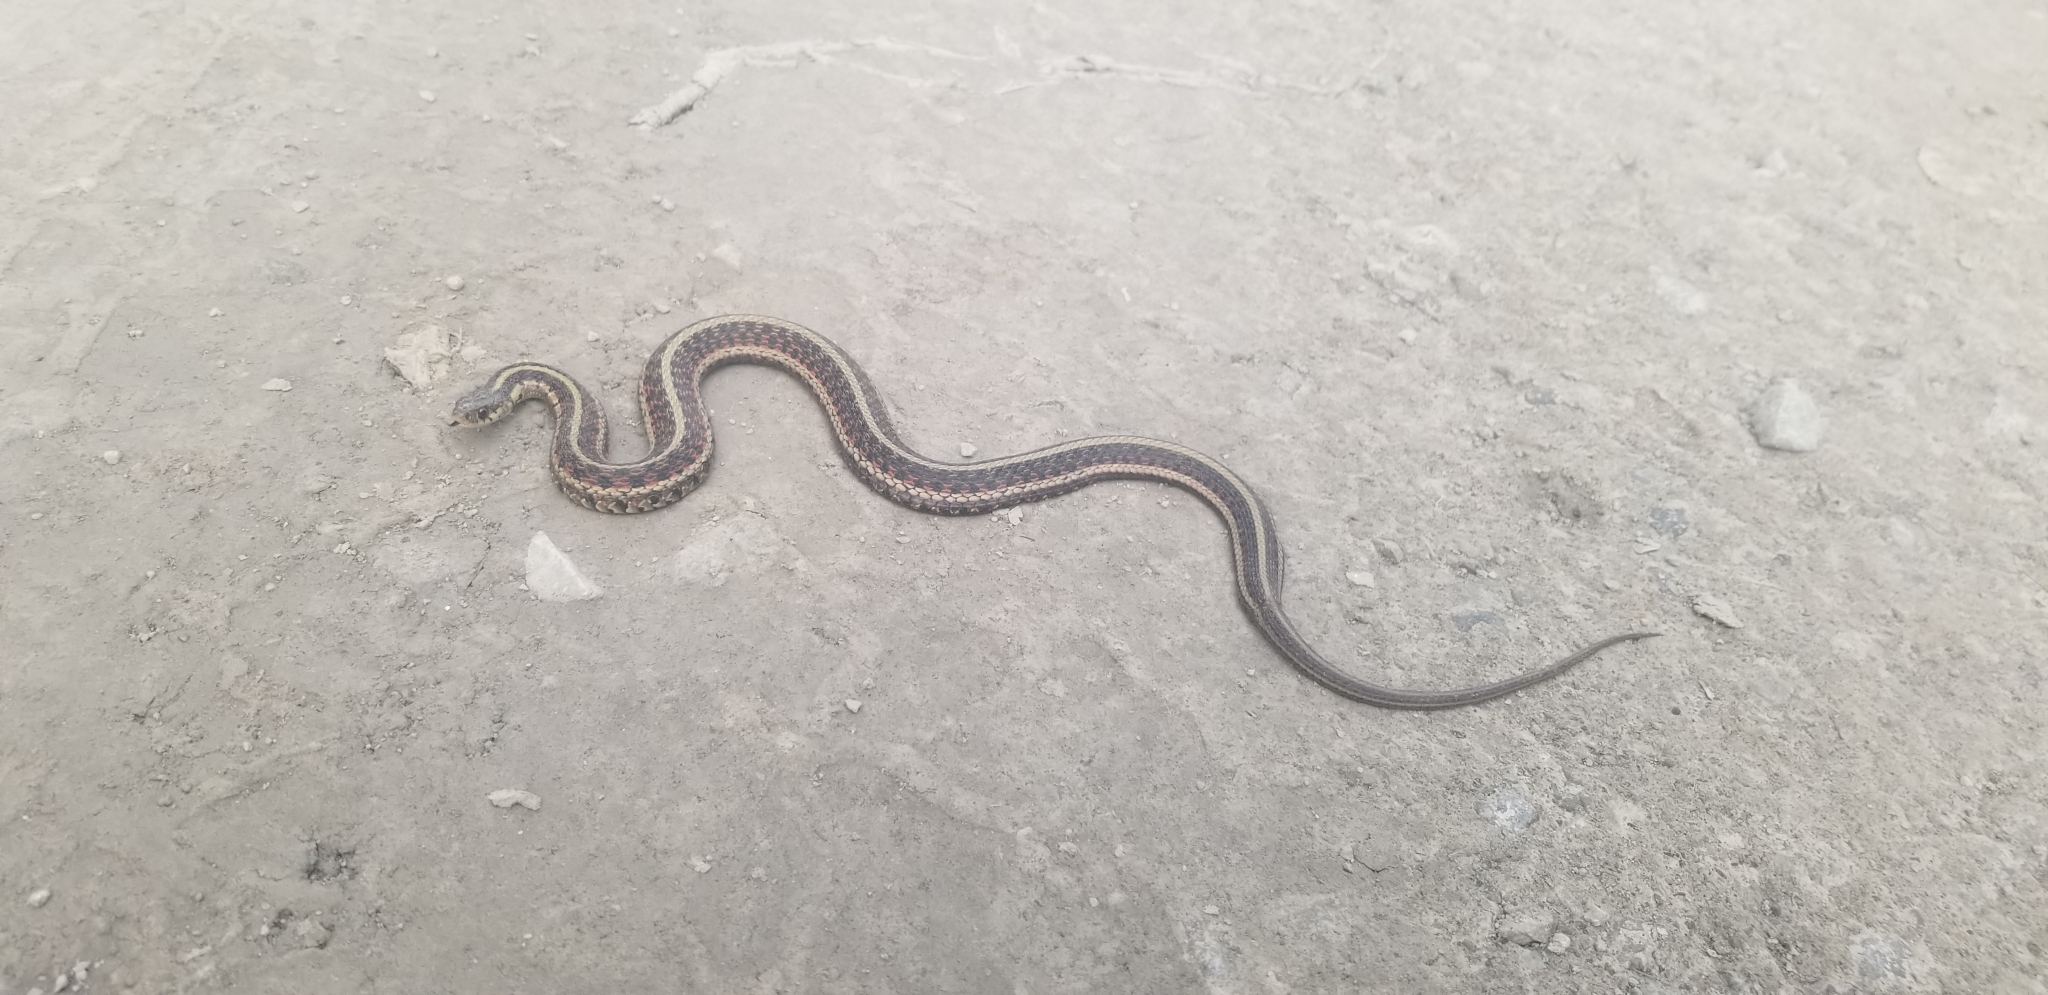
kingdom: Animalia
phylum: Chordata
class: Squamata
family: Colubridae
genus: Thamnophis
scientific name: Thamnophis sirtalis
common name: Common garter snake
